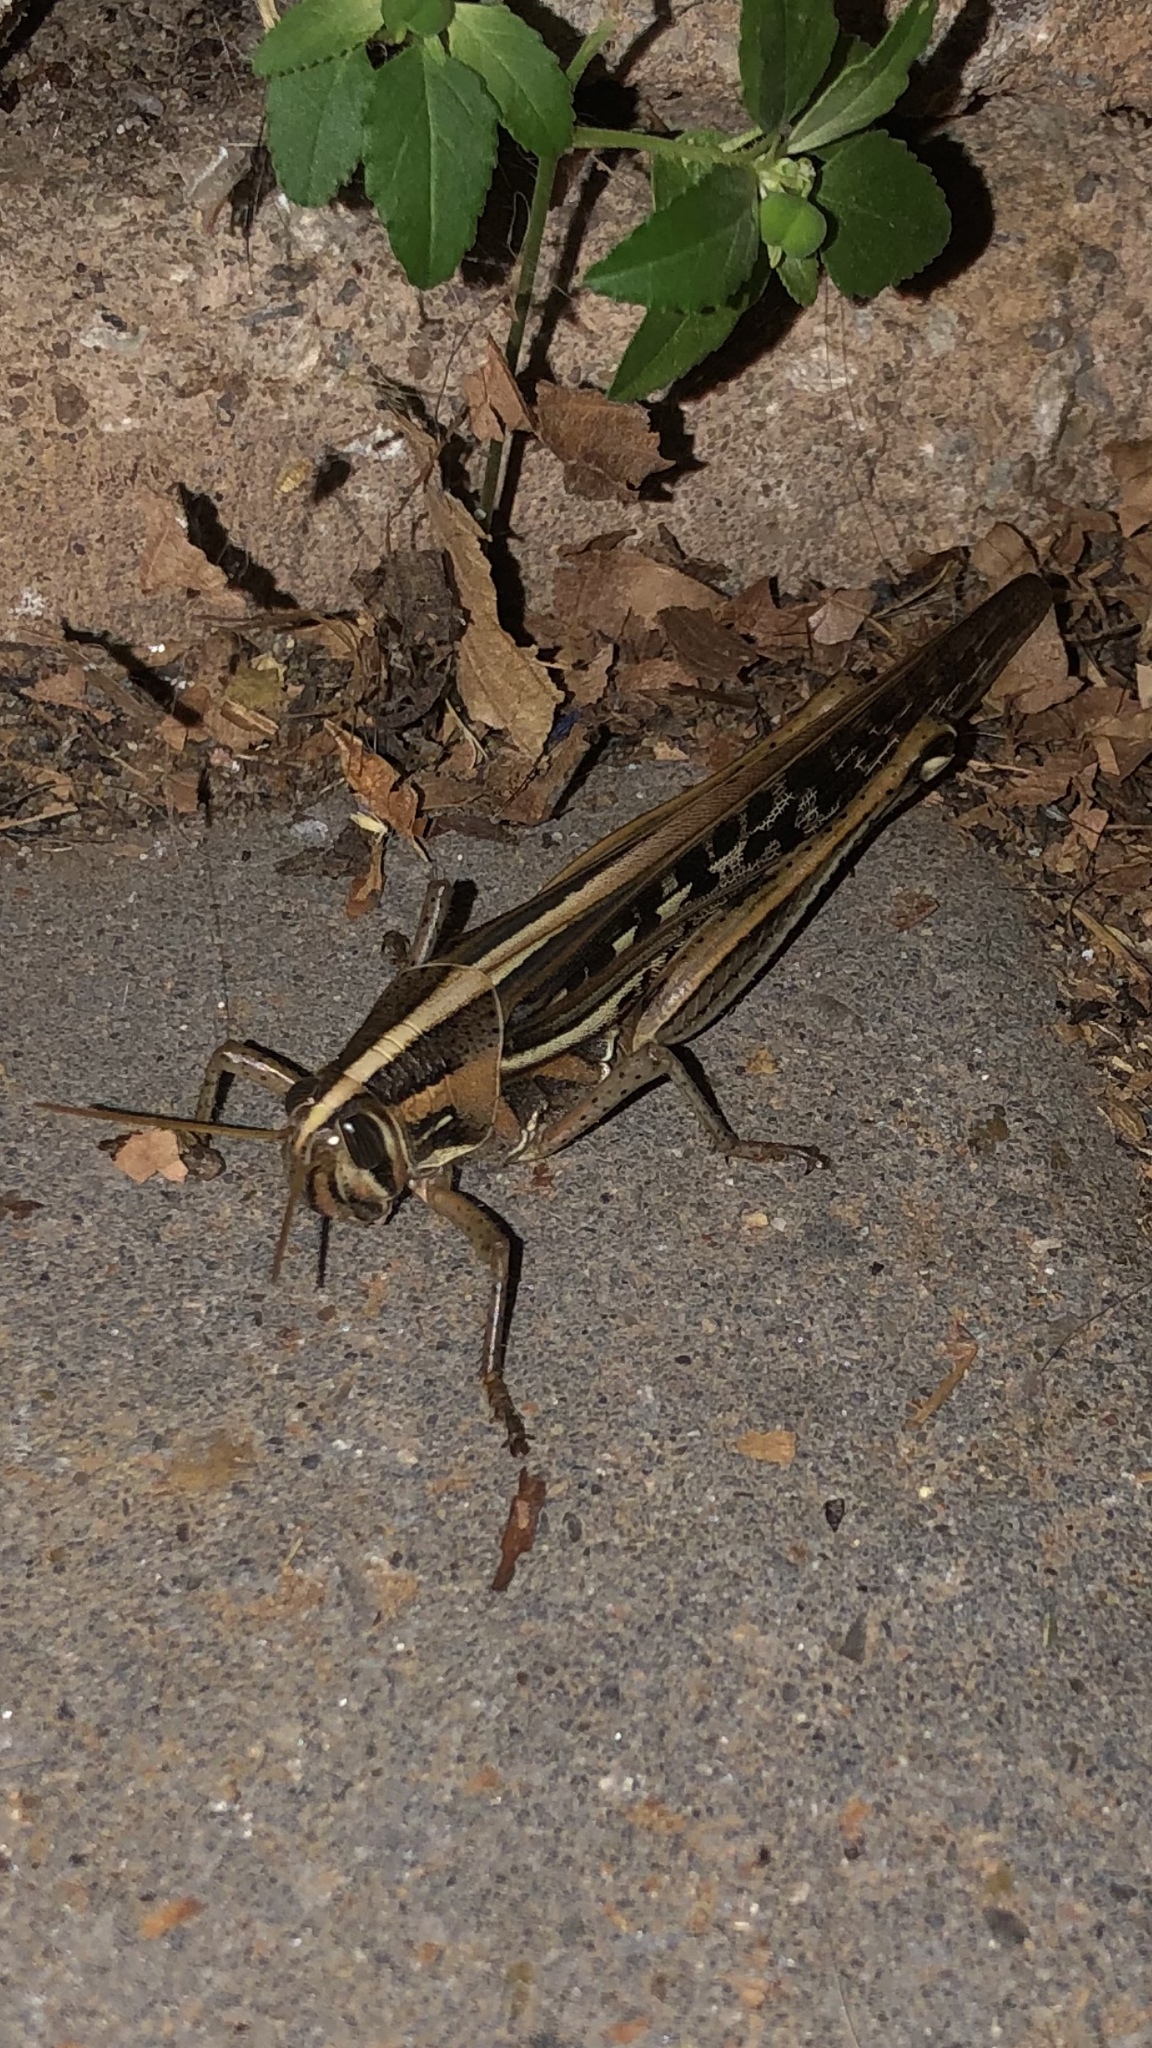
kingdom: Animalia
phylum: Arthropoda
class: Insecta
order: Orthoptera
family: Acrididae
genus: Schistocerca
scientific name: Schistocerca americana
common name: American bird locust
